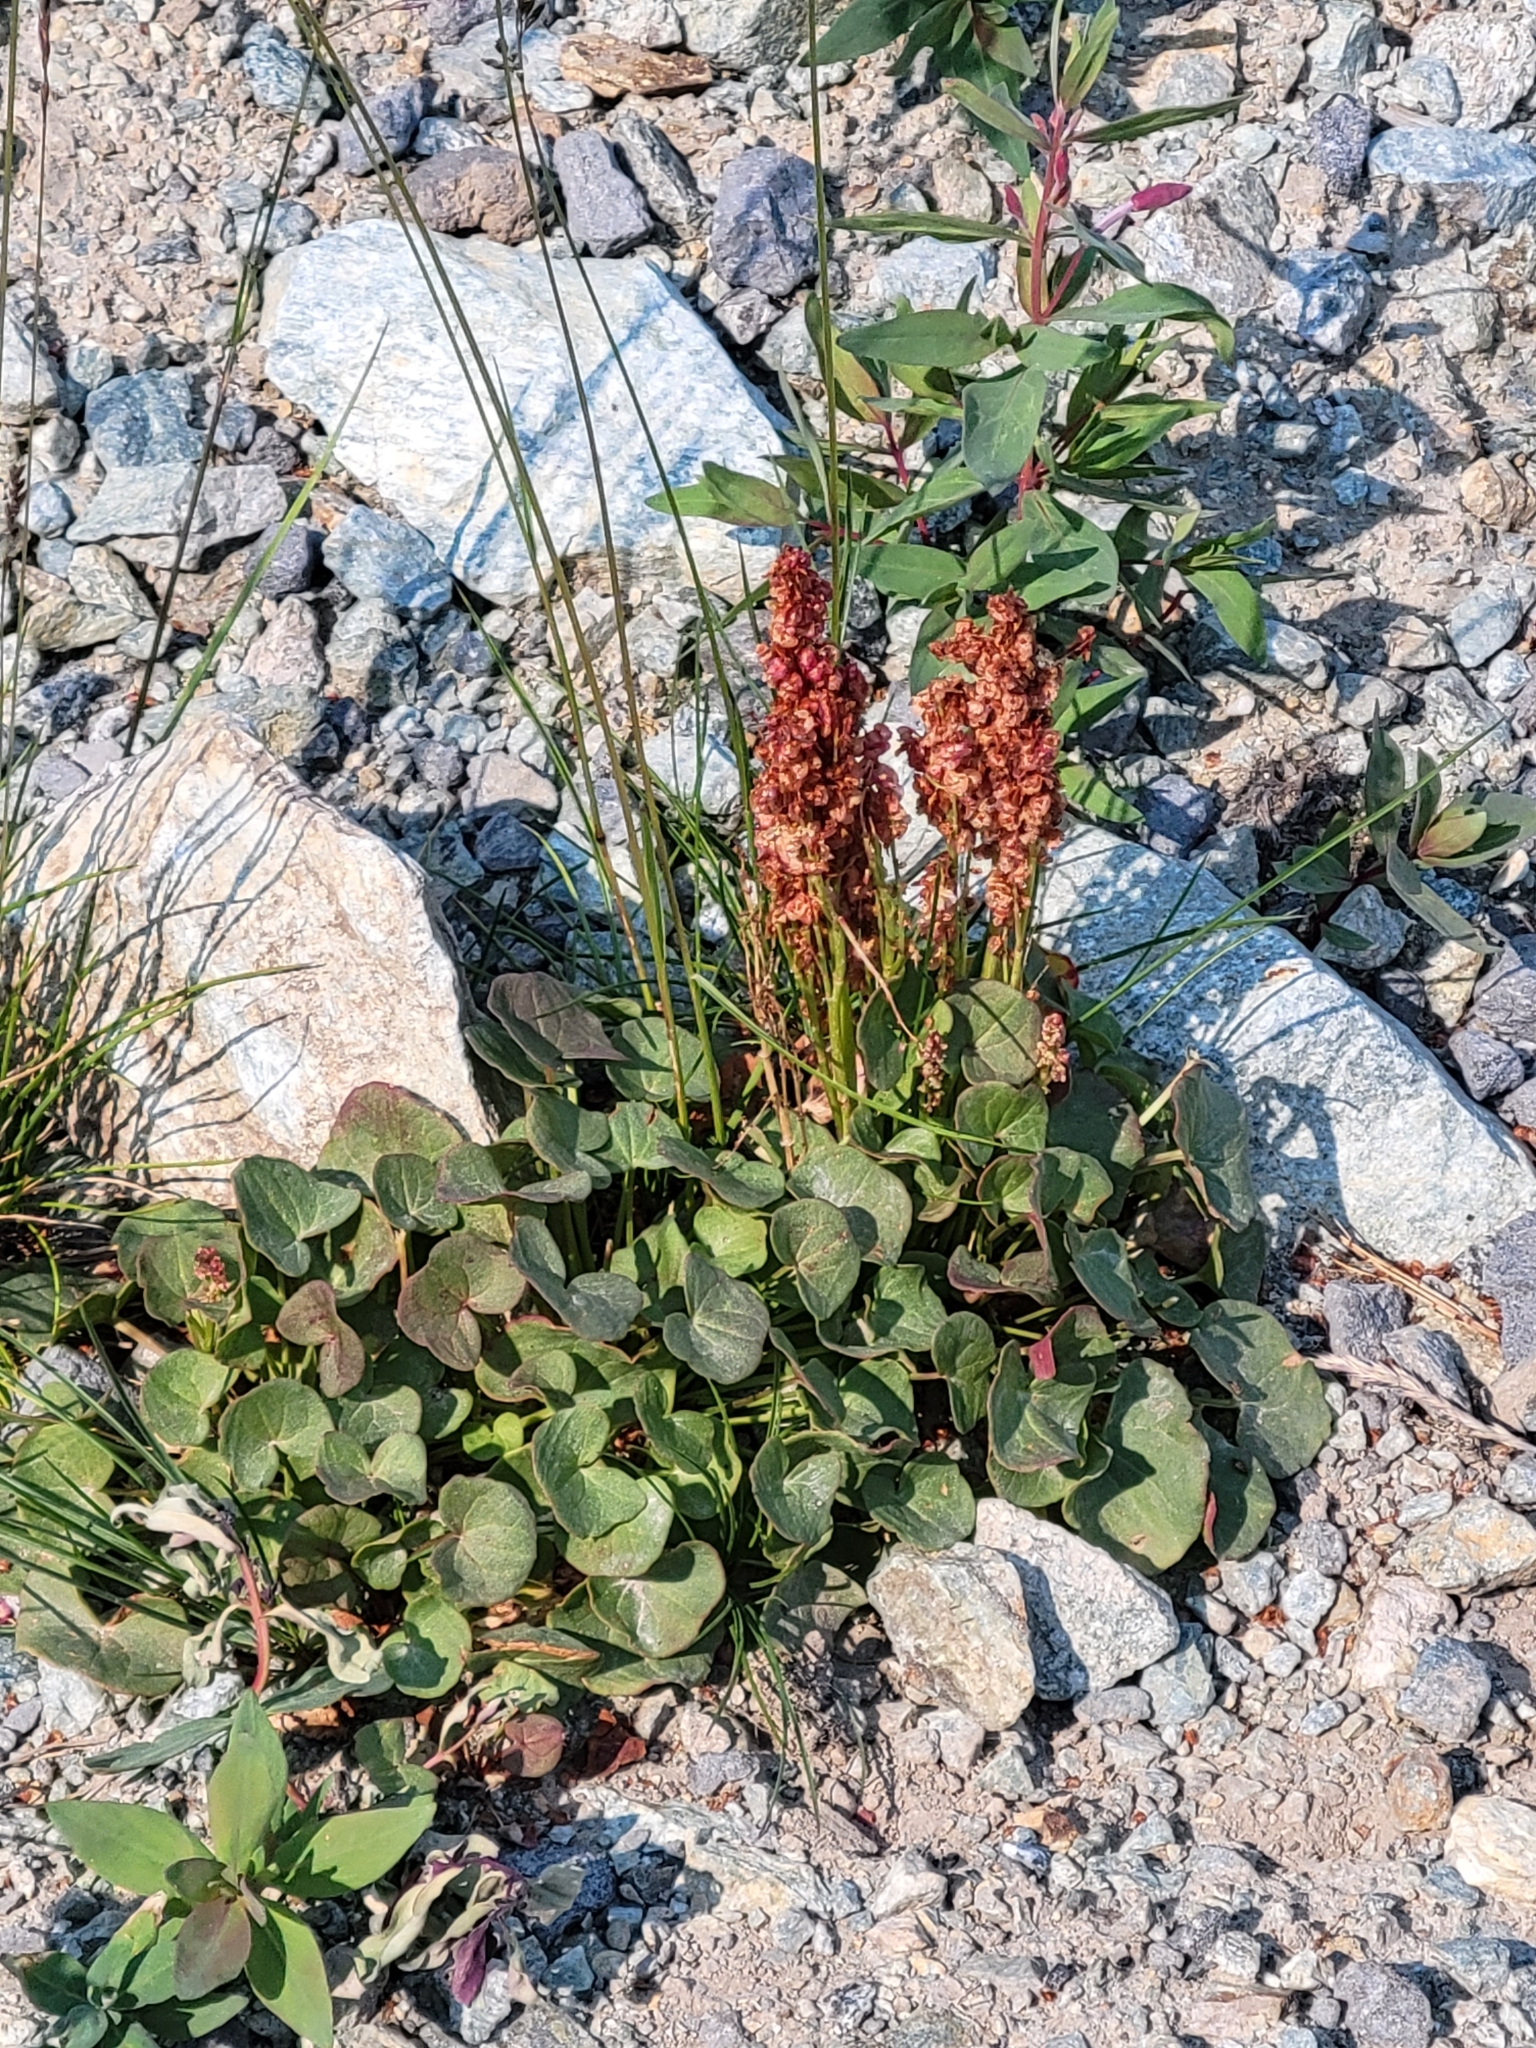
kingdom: Plantae
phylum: Tracheophyta
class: Magnoliopsida
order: Caryophyllales
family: Polygonaceae
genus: Oxyria
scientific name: Oxyria digyna
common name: Alpine mountain-sorrel
